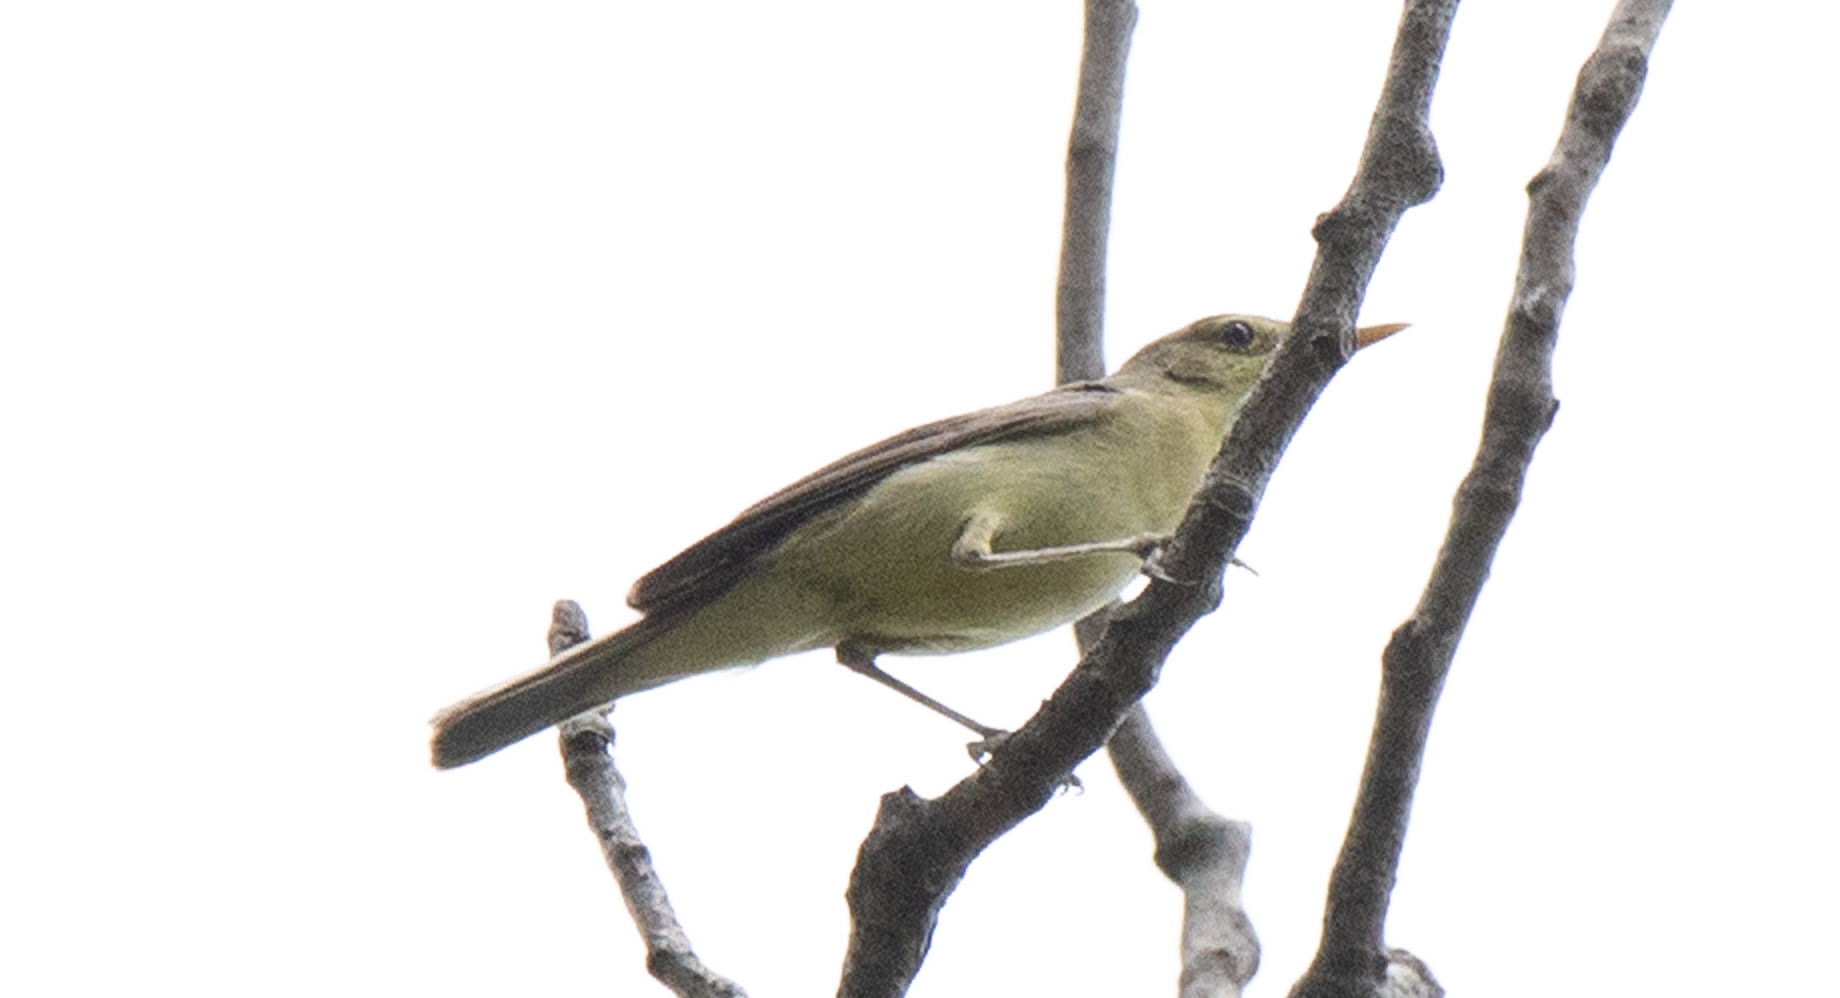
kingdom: Animalia
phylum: Chordata
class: Aves
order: Passeriformes
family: Acrocephalidae
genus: Hippolais
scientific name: Hippolais polyglotta
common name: Melodious warbler
